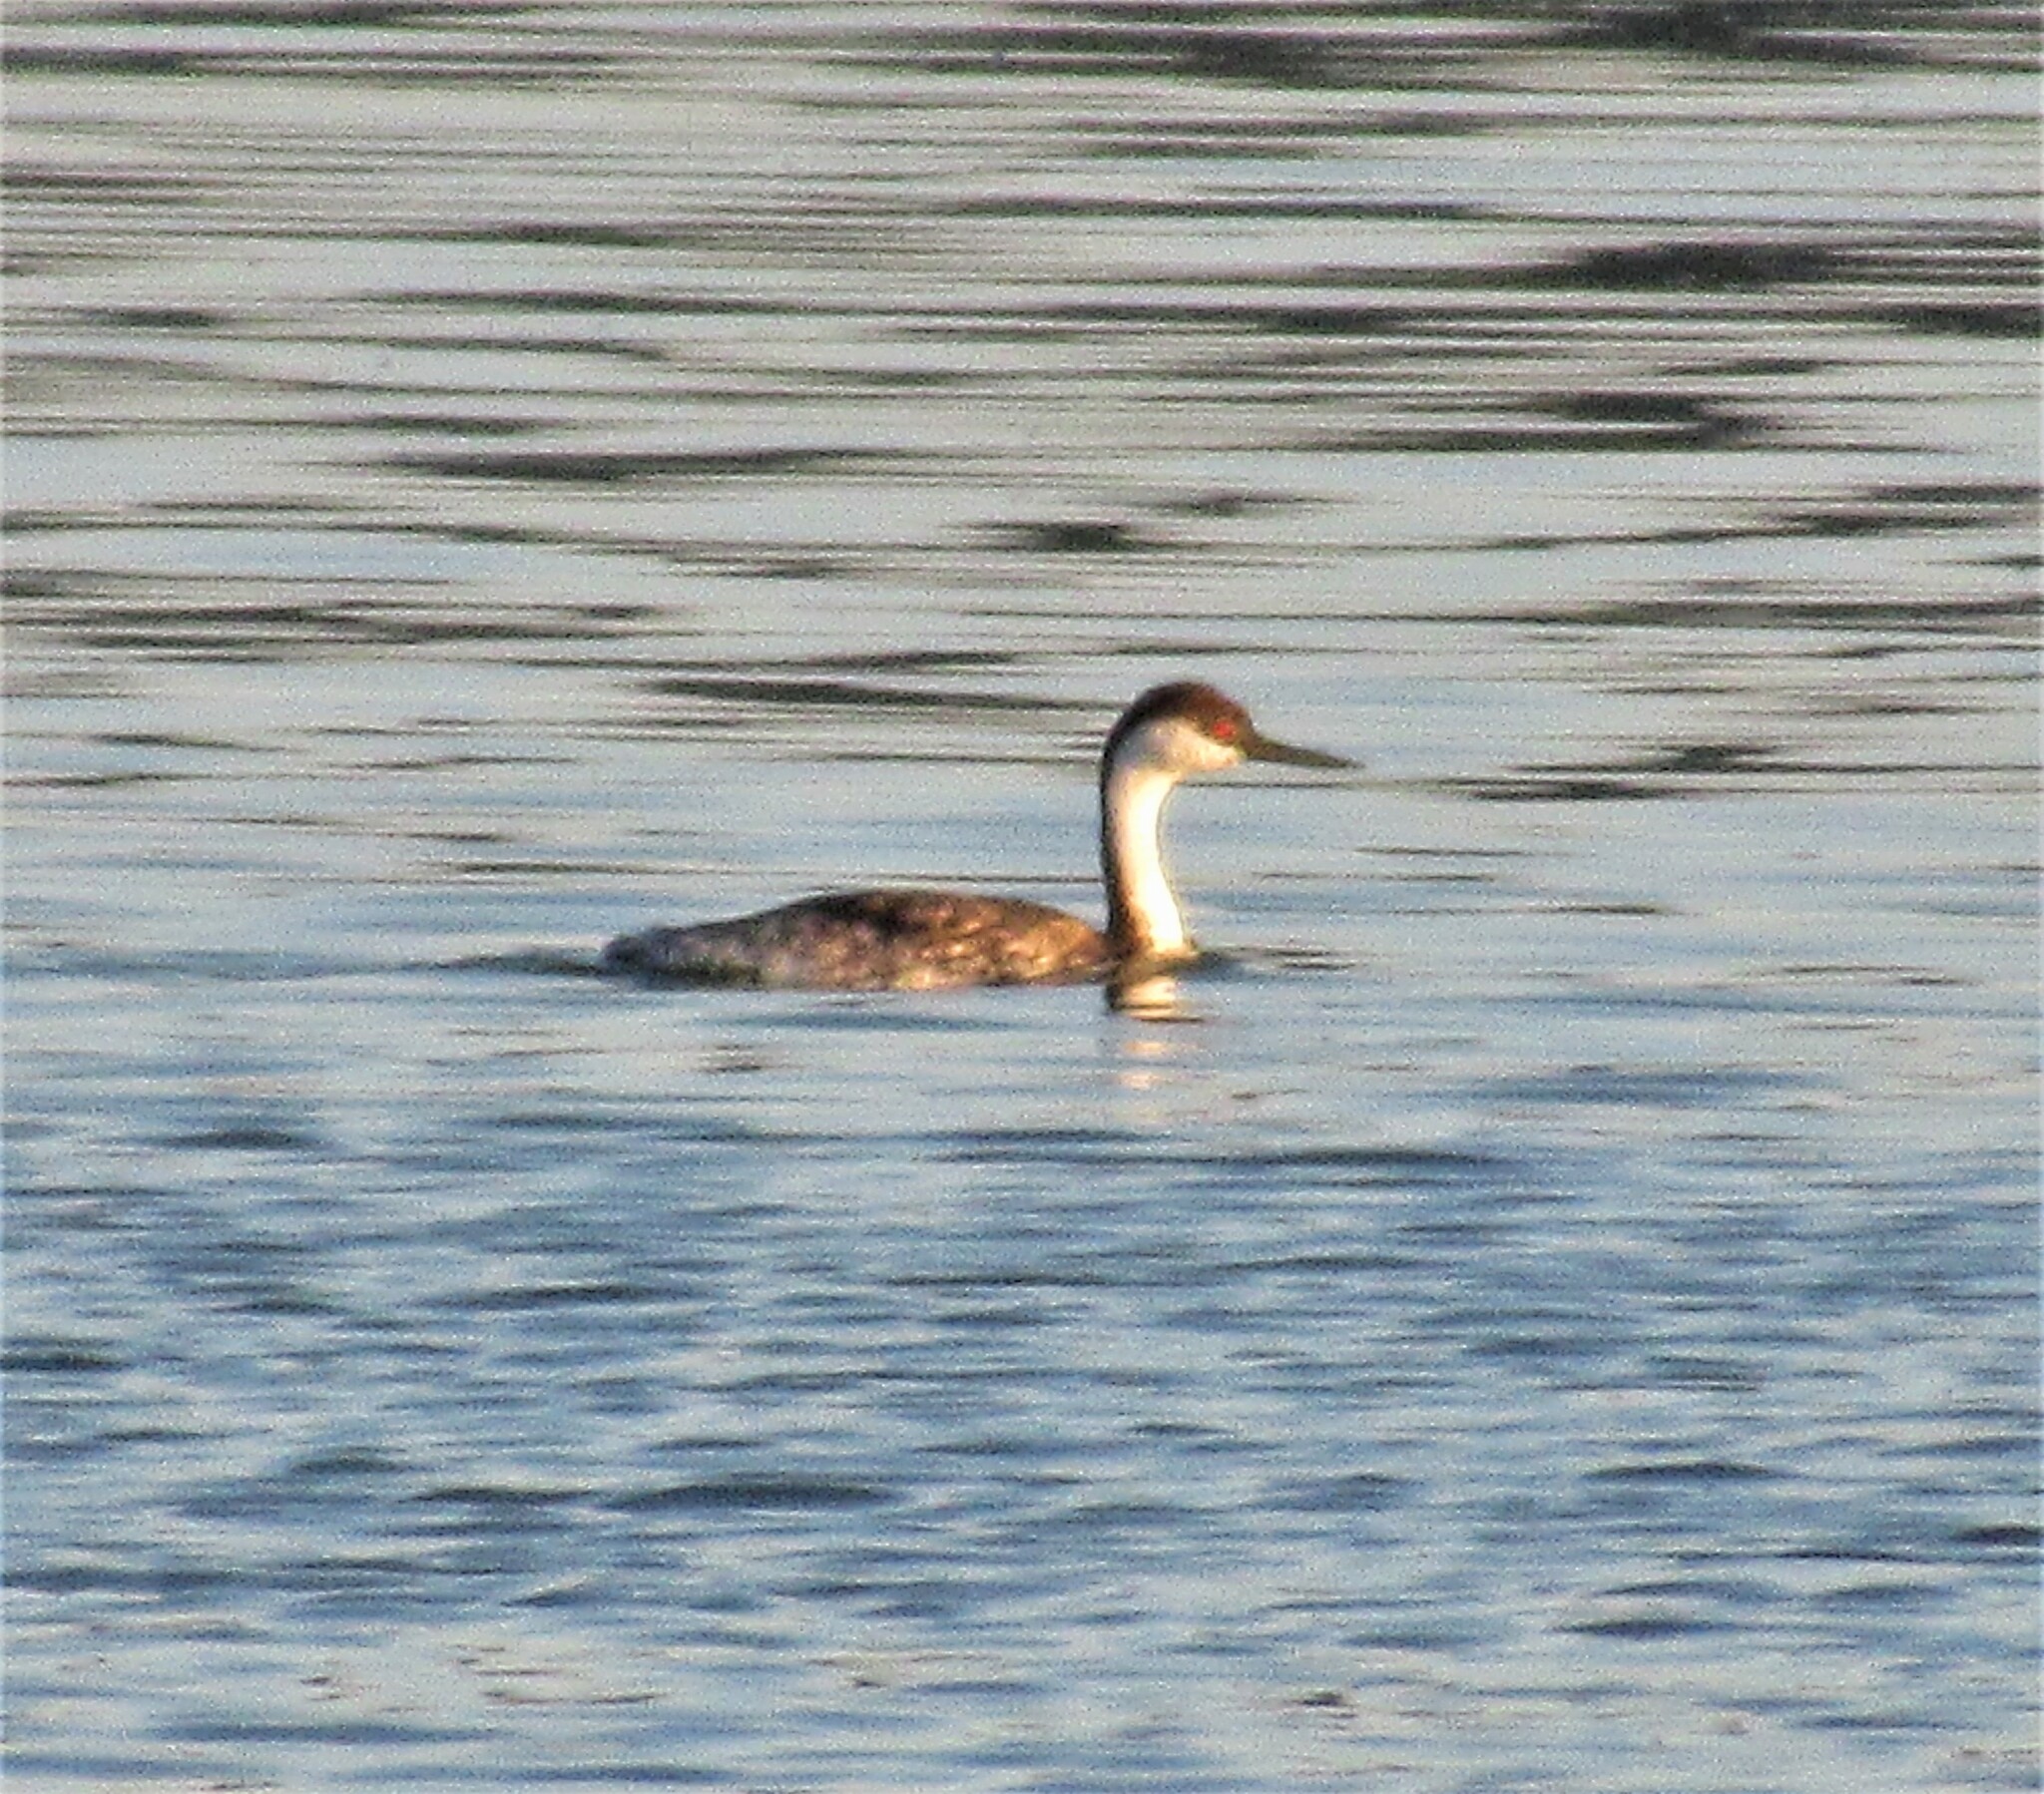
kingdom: Animalia
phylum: Chordata
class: Aves
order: Podicipediformes
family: Podicipedidae
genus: Aechmophorus
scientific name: Aechmophorus occidentalis
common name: Western grebe
